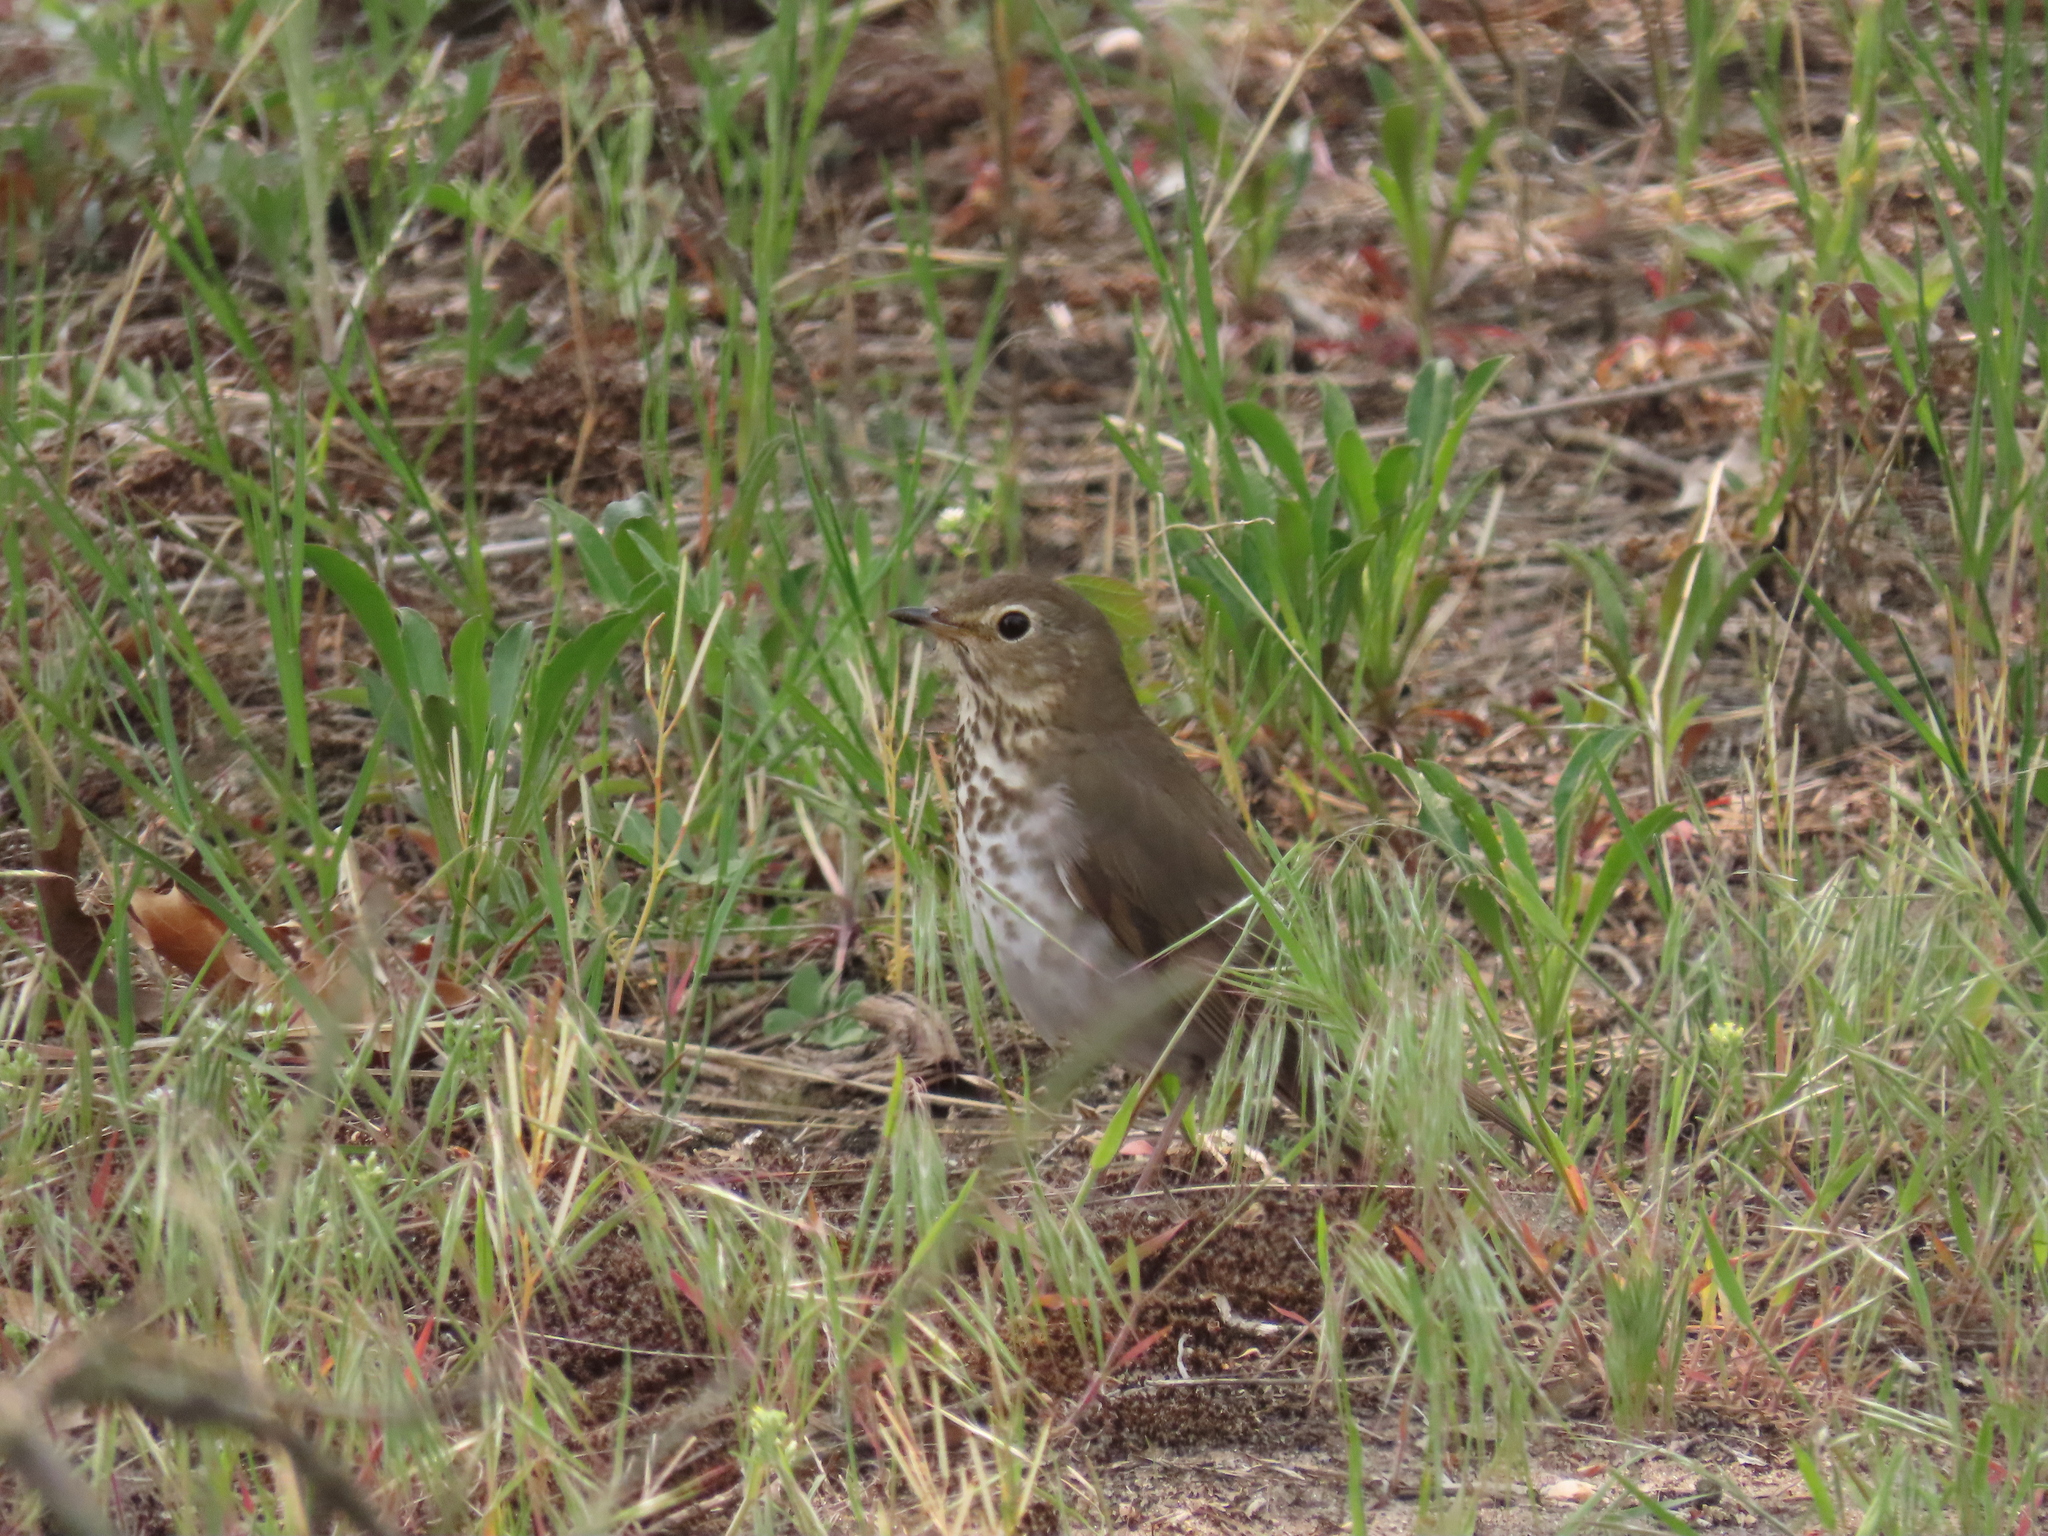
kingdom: Animalia
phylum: Chordata
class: Aves
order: Passeriformes
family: Turdidae
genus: Catharus
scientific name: Catharus ustulatus
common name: Swainson's thrush
